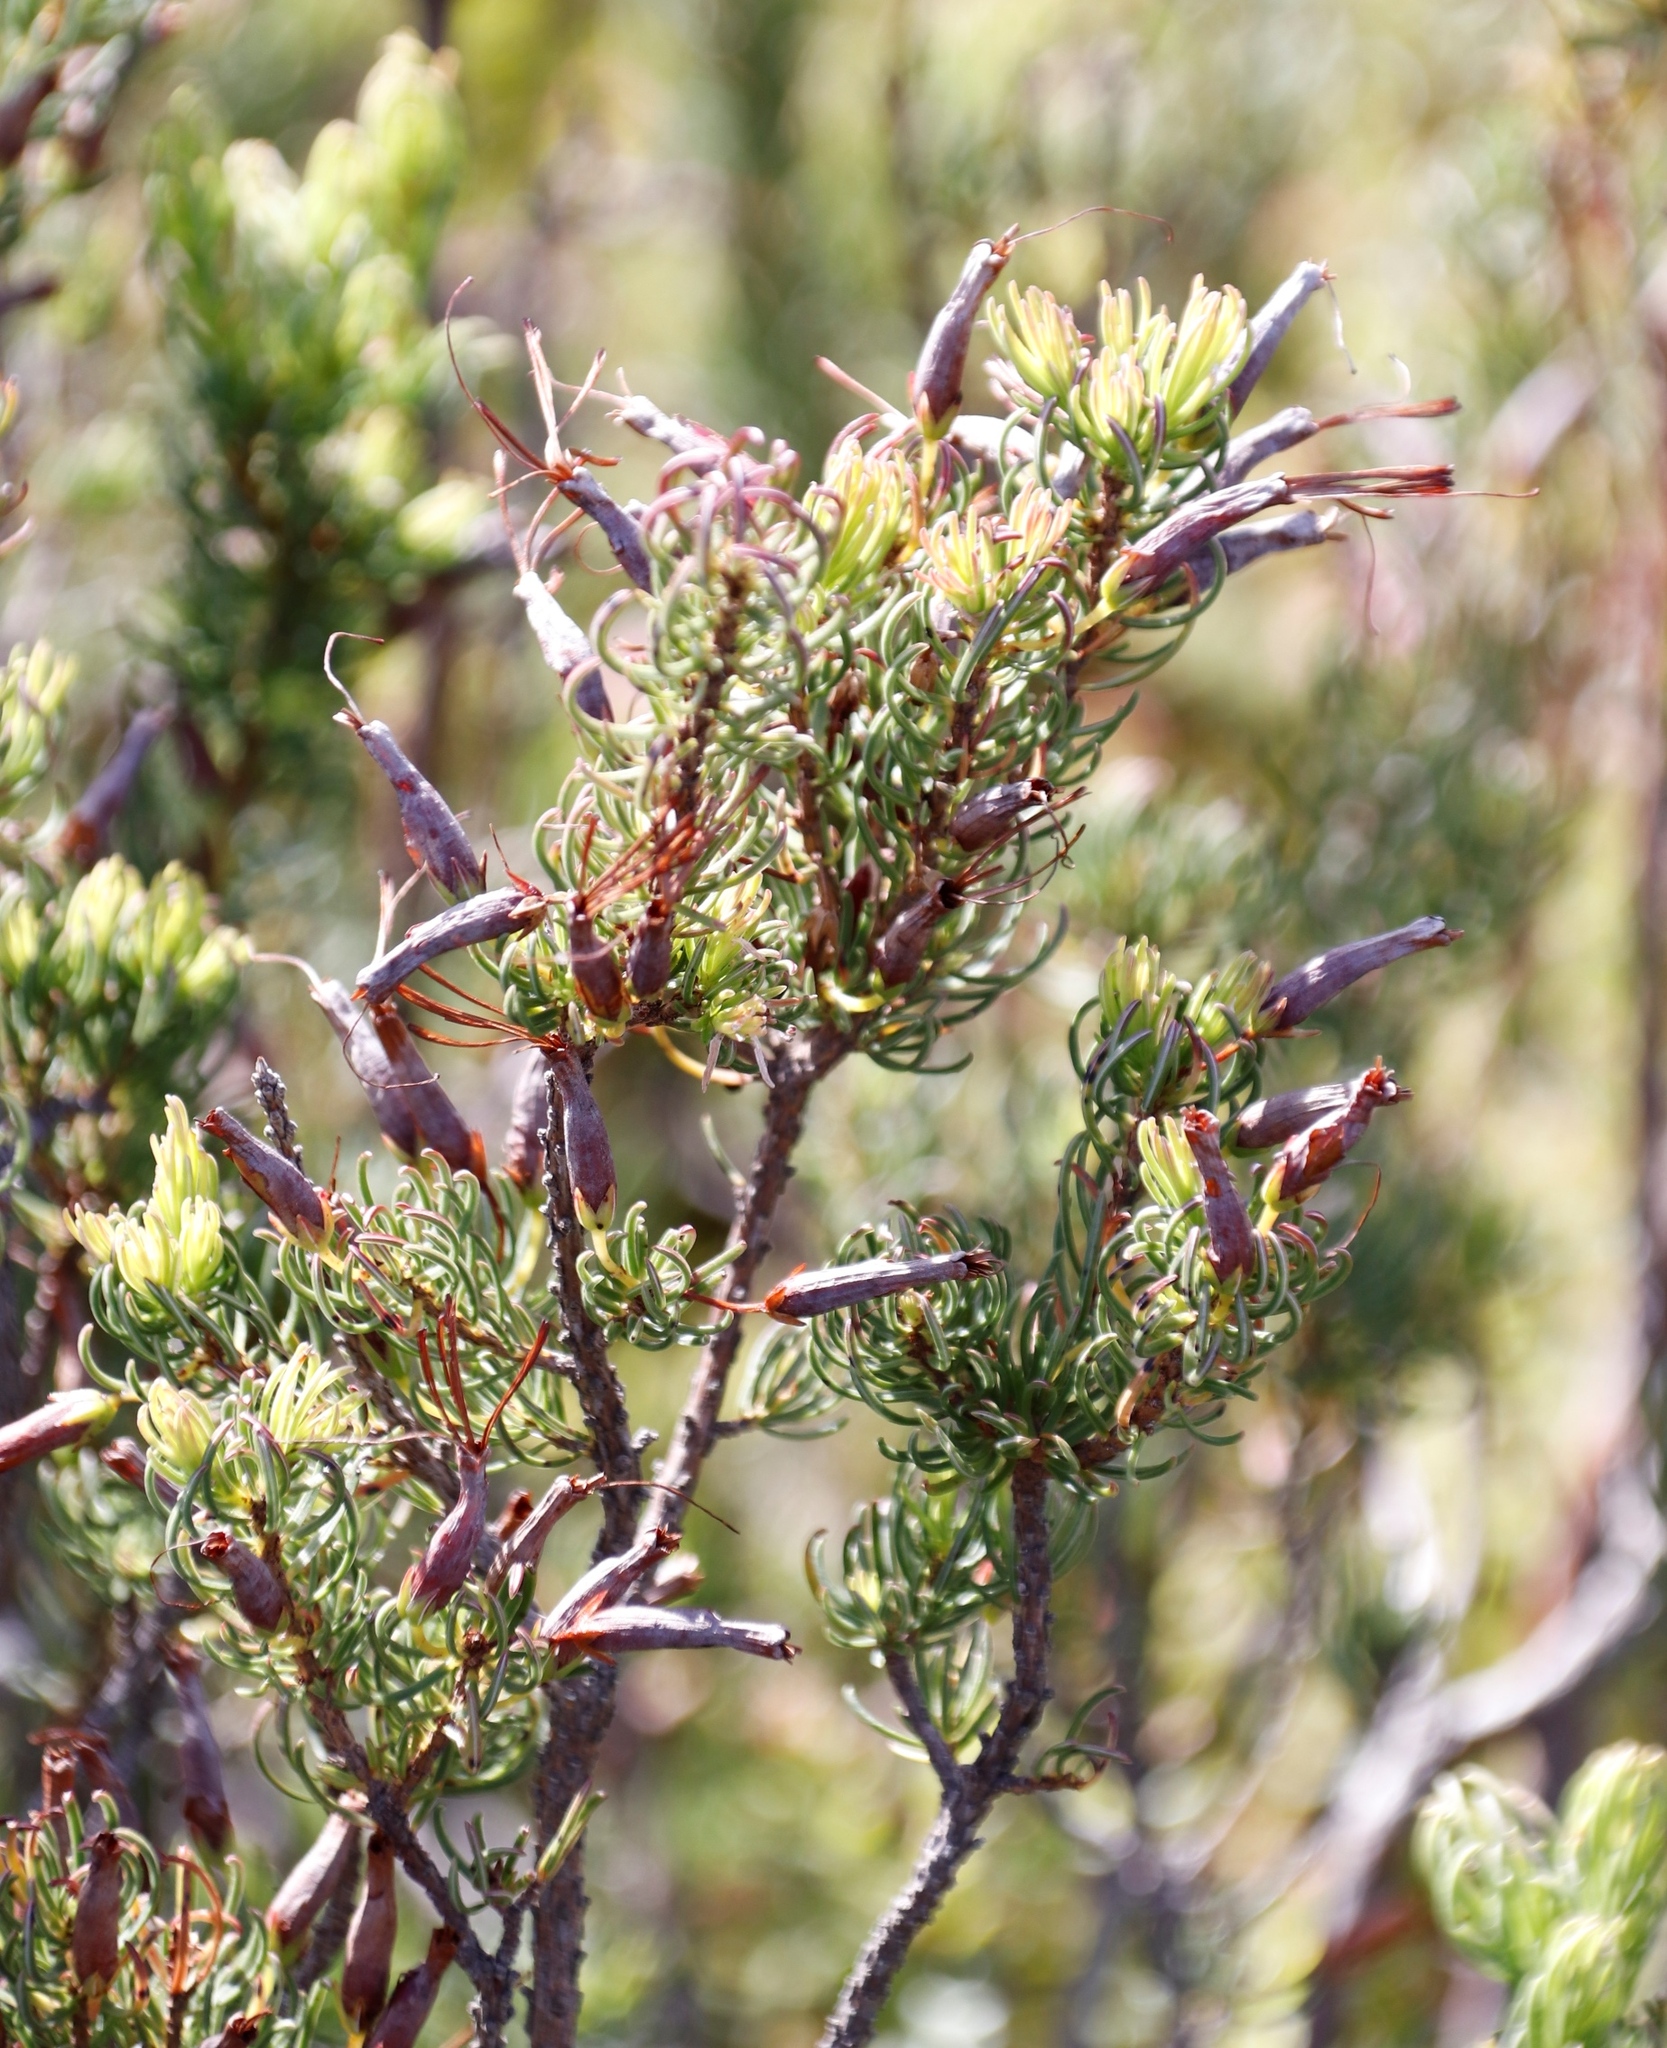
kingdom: Plantae
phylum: Tracheophyta
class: Magnoliopsida
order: Ericales
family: Ericaceae
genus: Erica
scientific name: Erica plukenetii
